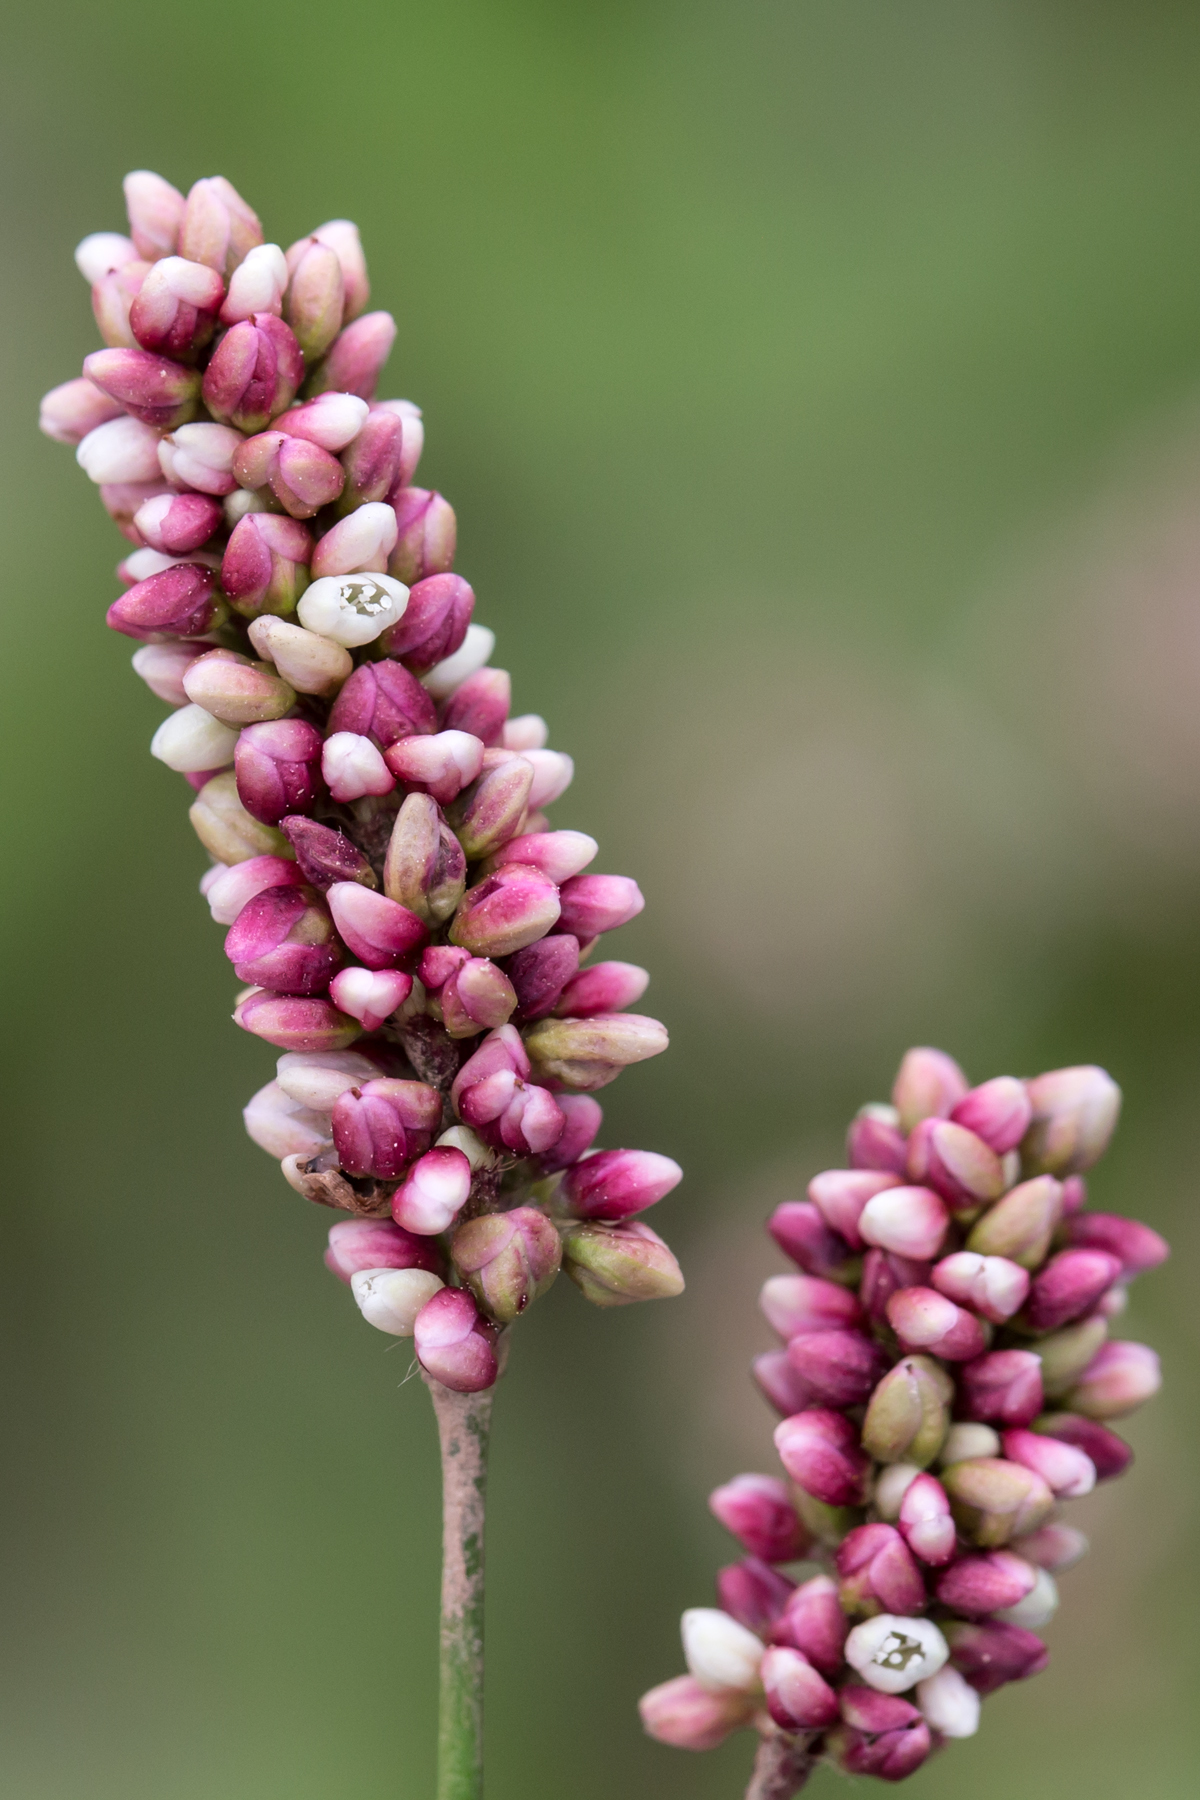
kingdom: Plantae
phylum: Tracheophyta
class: Magnoliopsida
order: Caryophyllales
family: Polygonaceae
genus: Persicaria
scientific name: Persicaria maculosa
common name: Redshank
